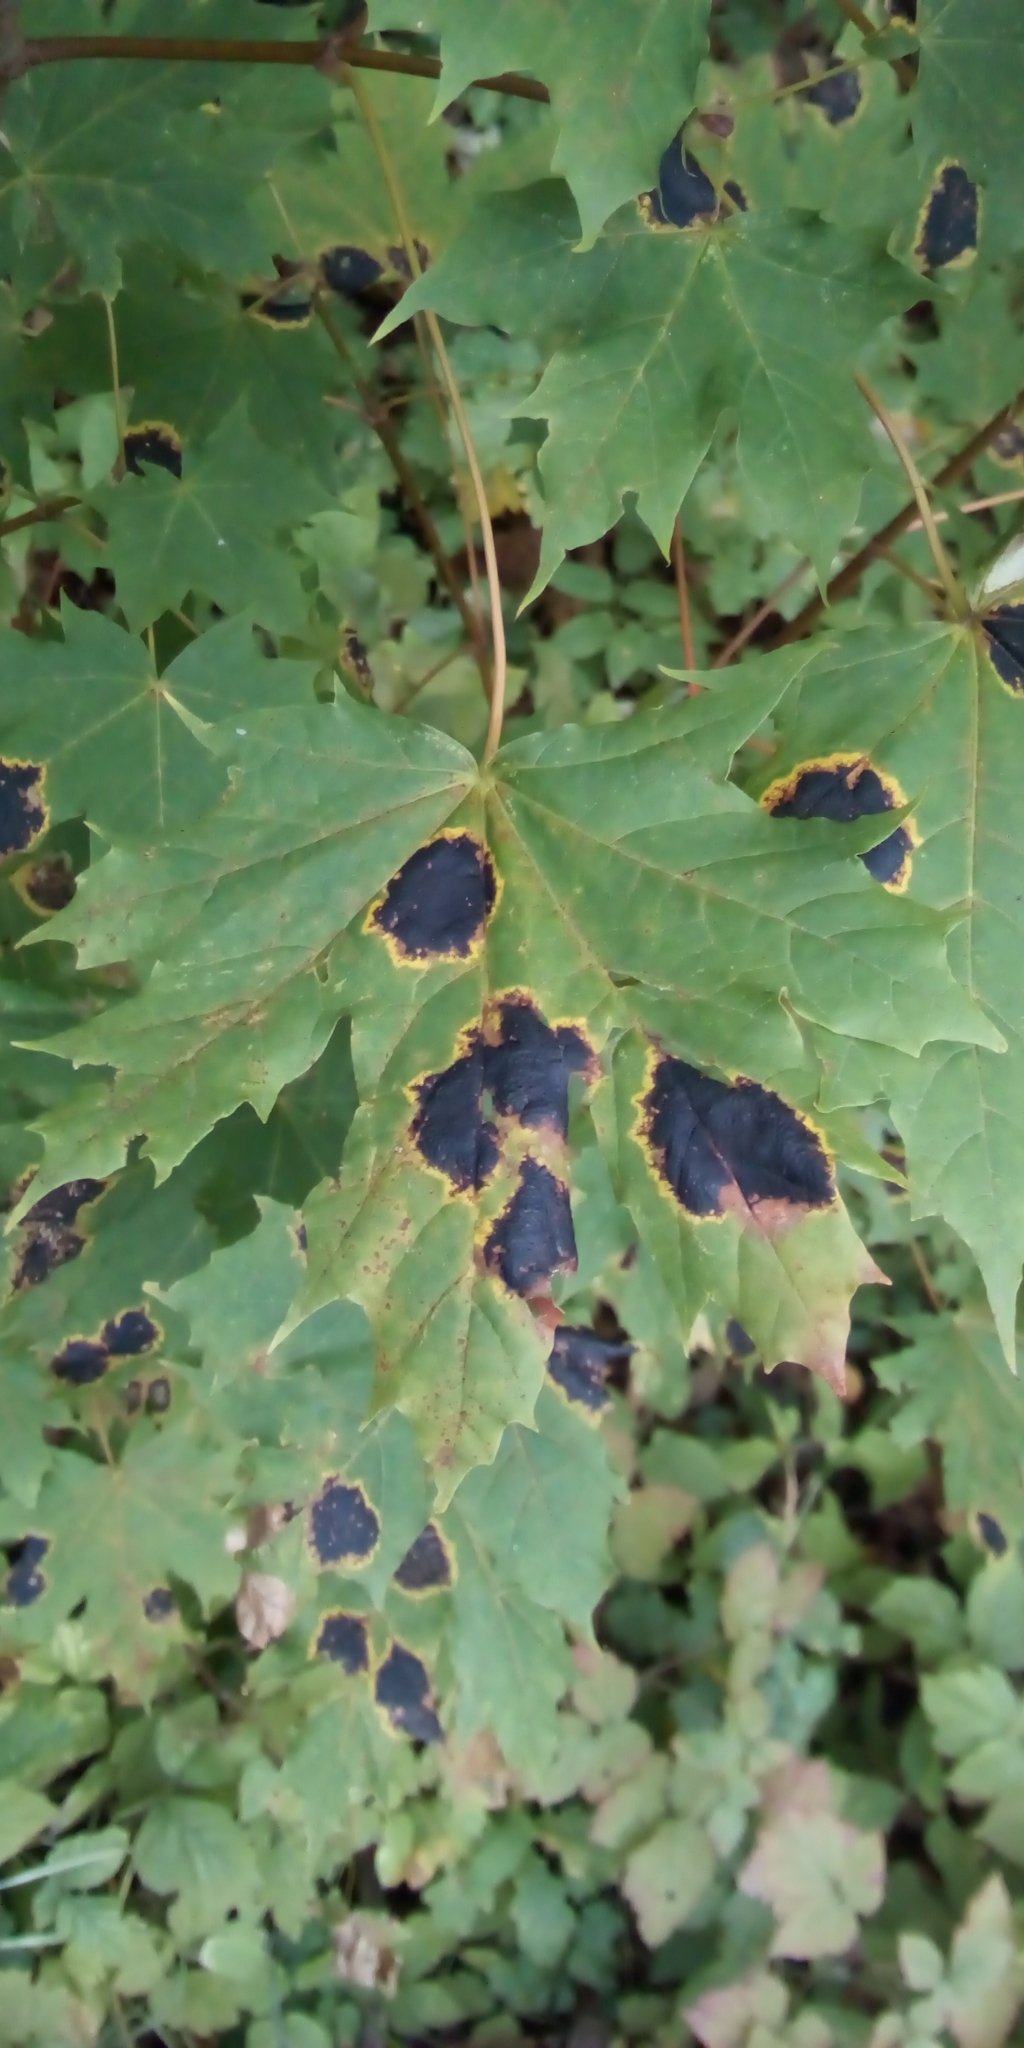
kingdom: Plantae
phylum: Tracheophyta
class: Magnoliopsida
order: Sapindales
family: Sapindaceae
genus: Acer
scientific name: Acer platanoides
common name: Norway maple
